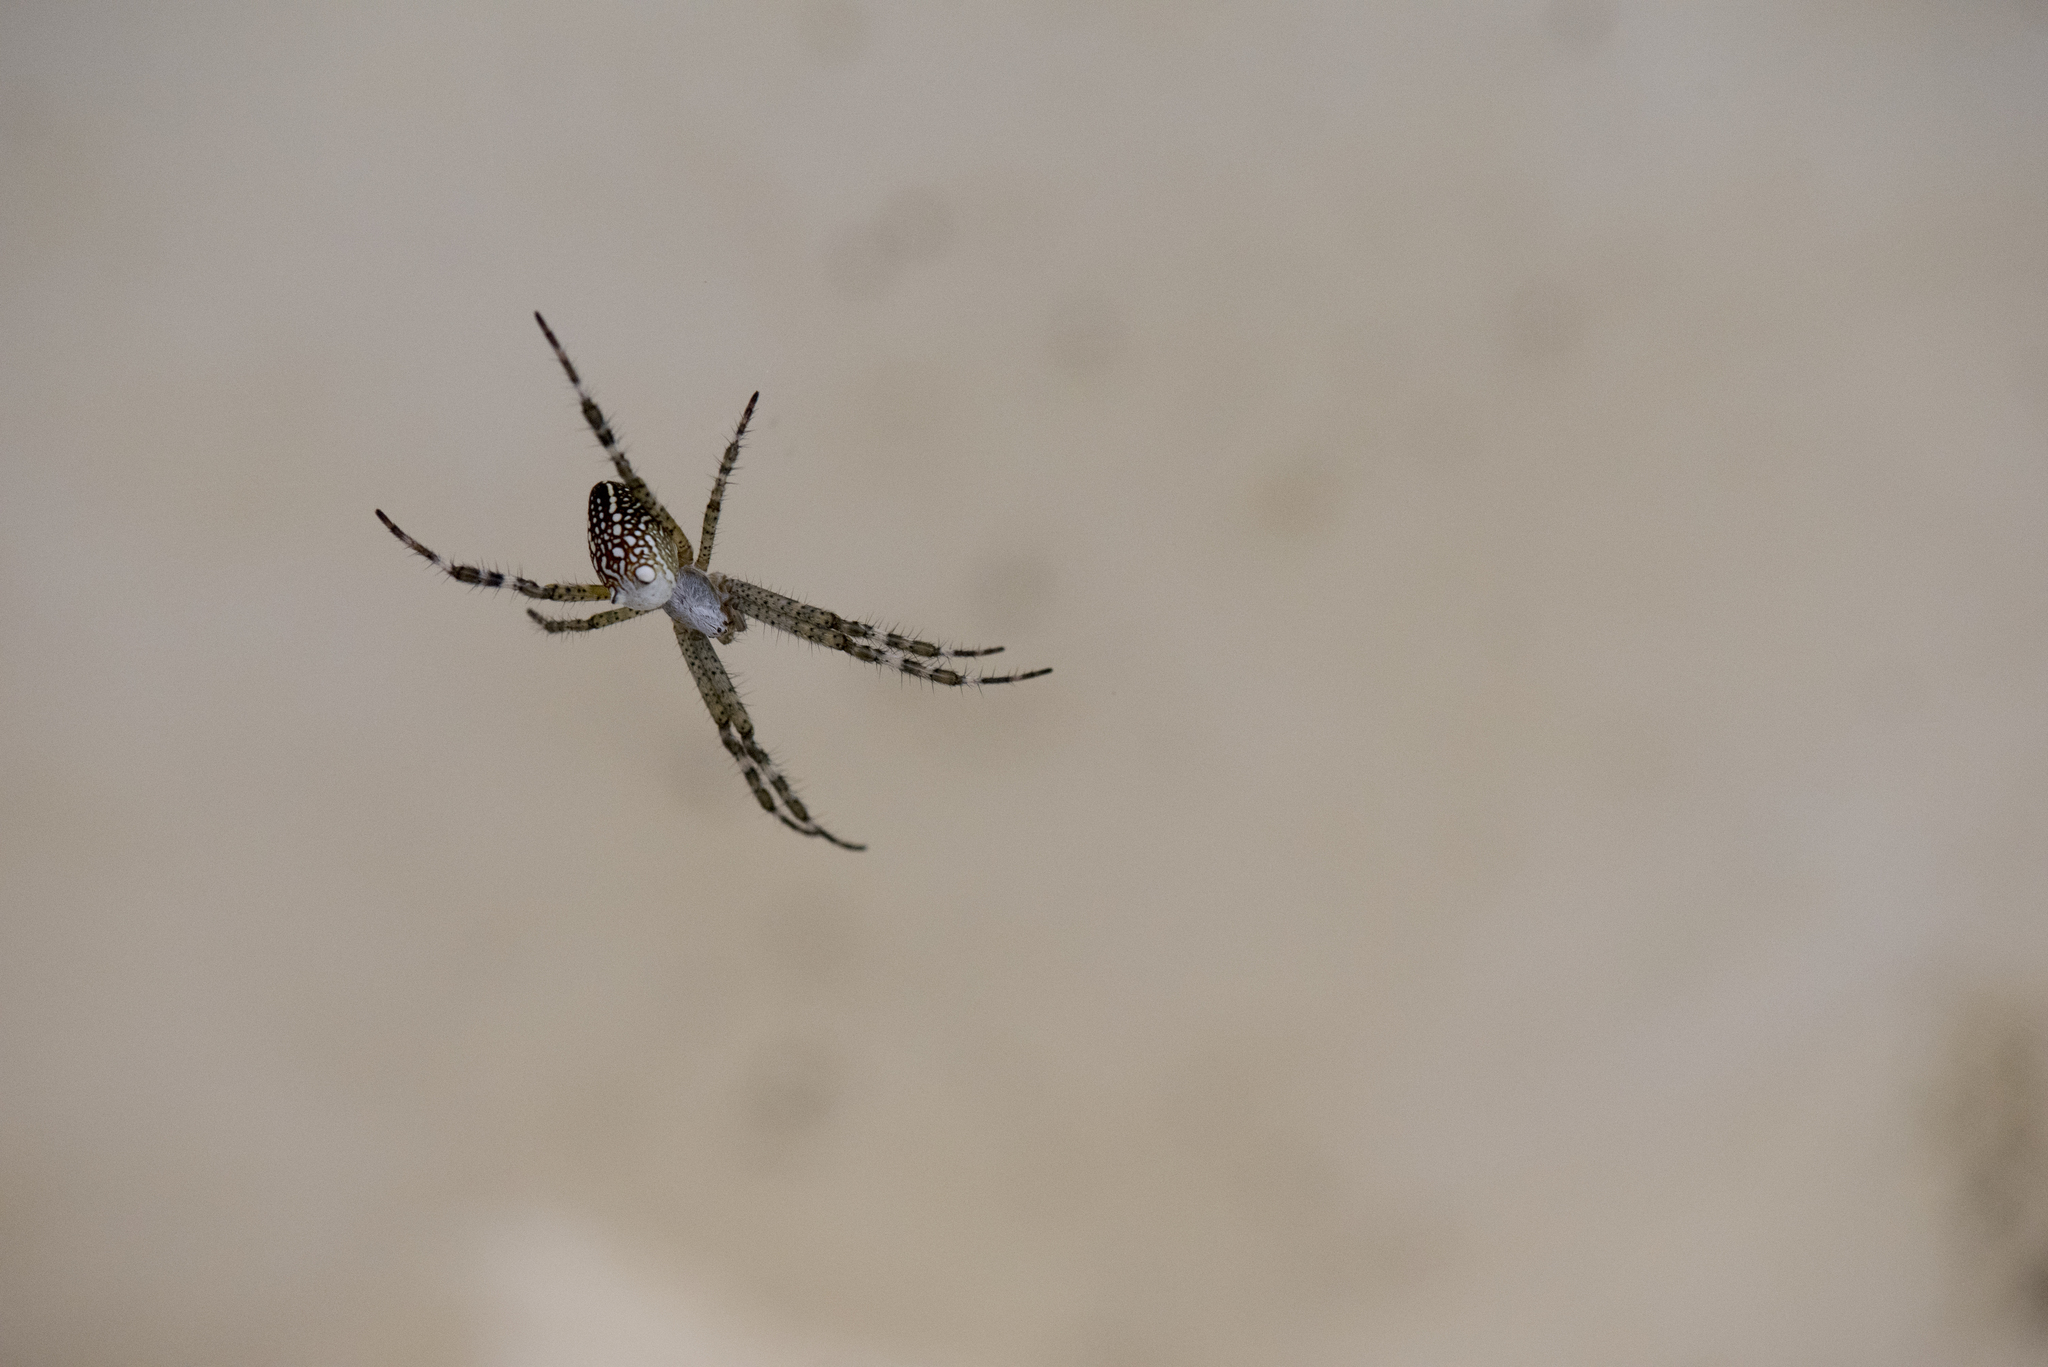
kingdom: Chromista
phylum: Ochrophyta
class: Dictyochophyceae
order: Pedinellales
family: Cyrtophoraceae
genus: Cyrtophora
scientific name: Cyrtophora moluccensis
